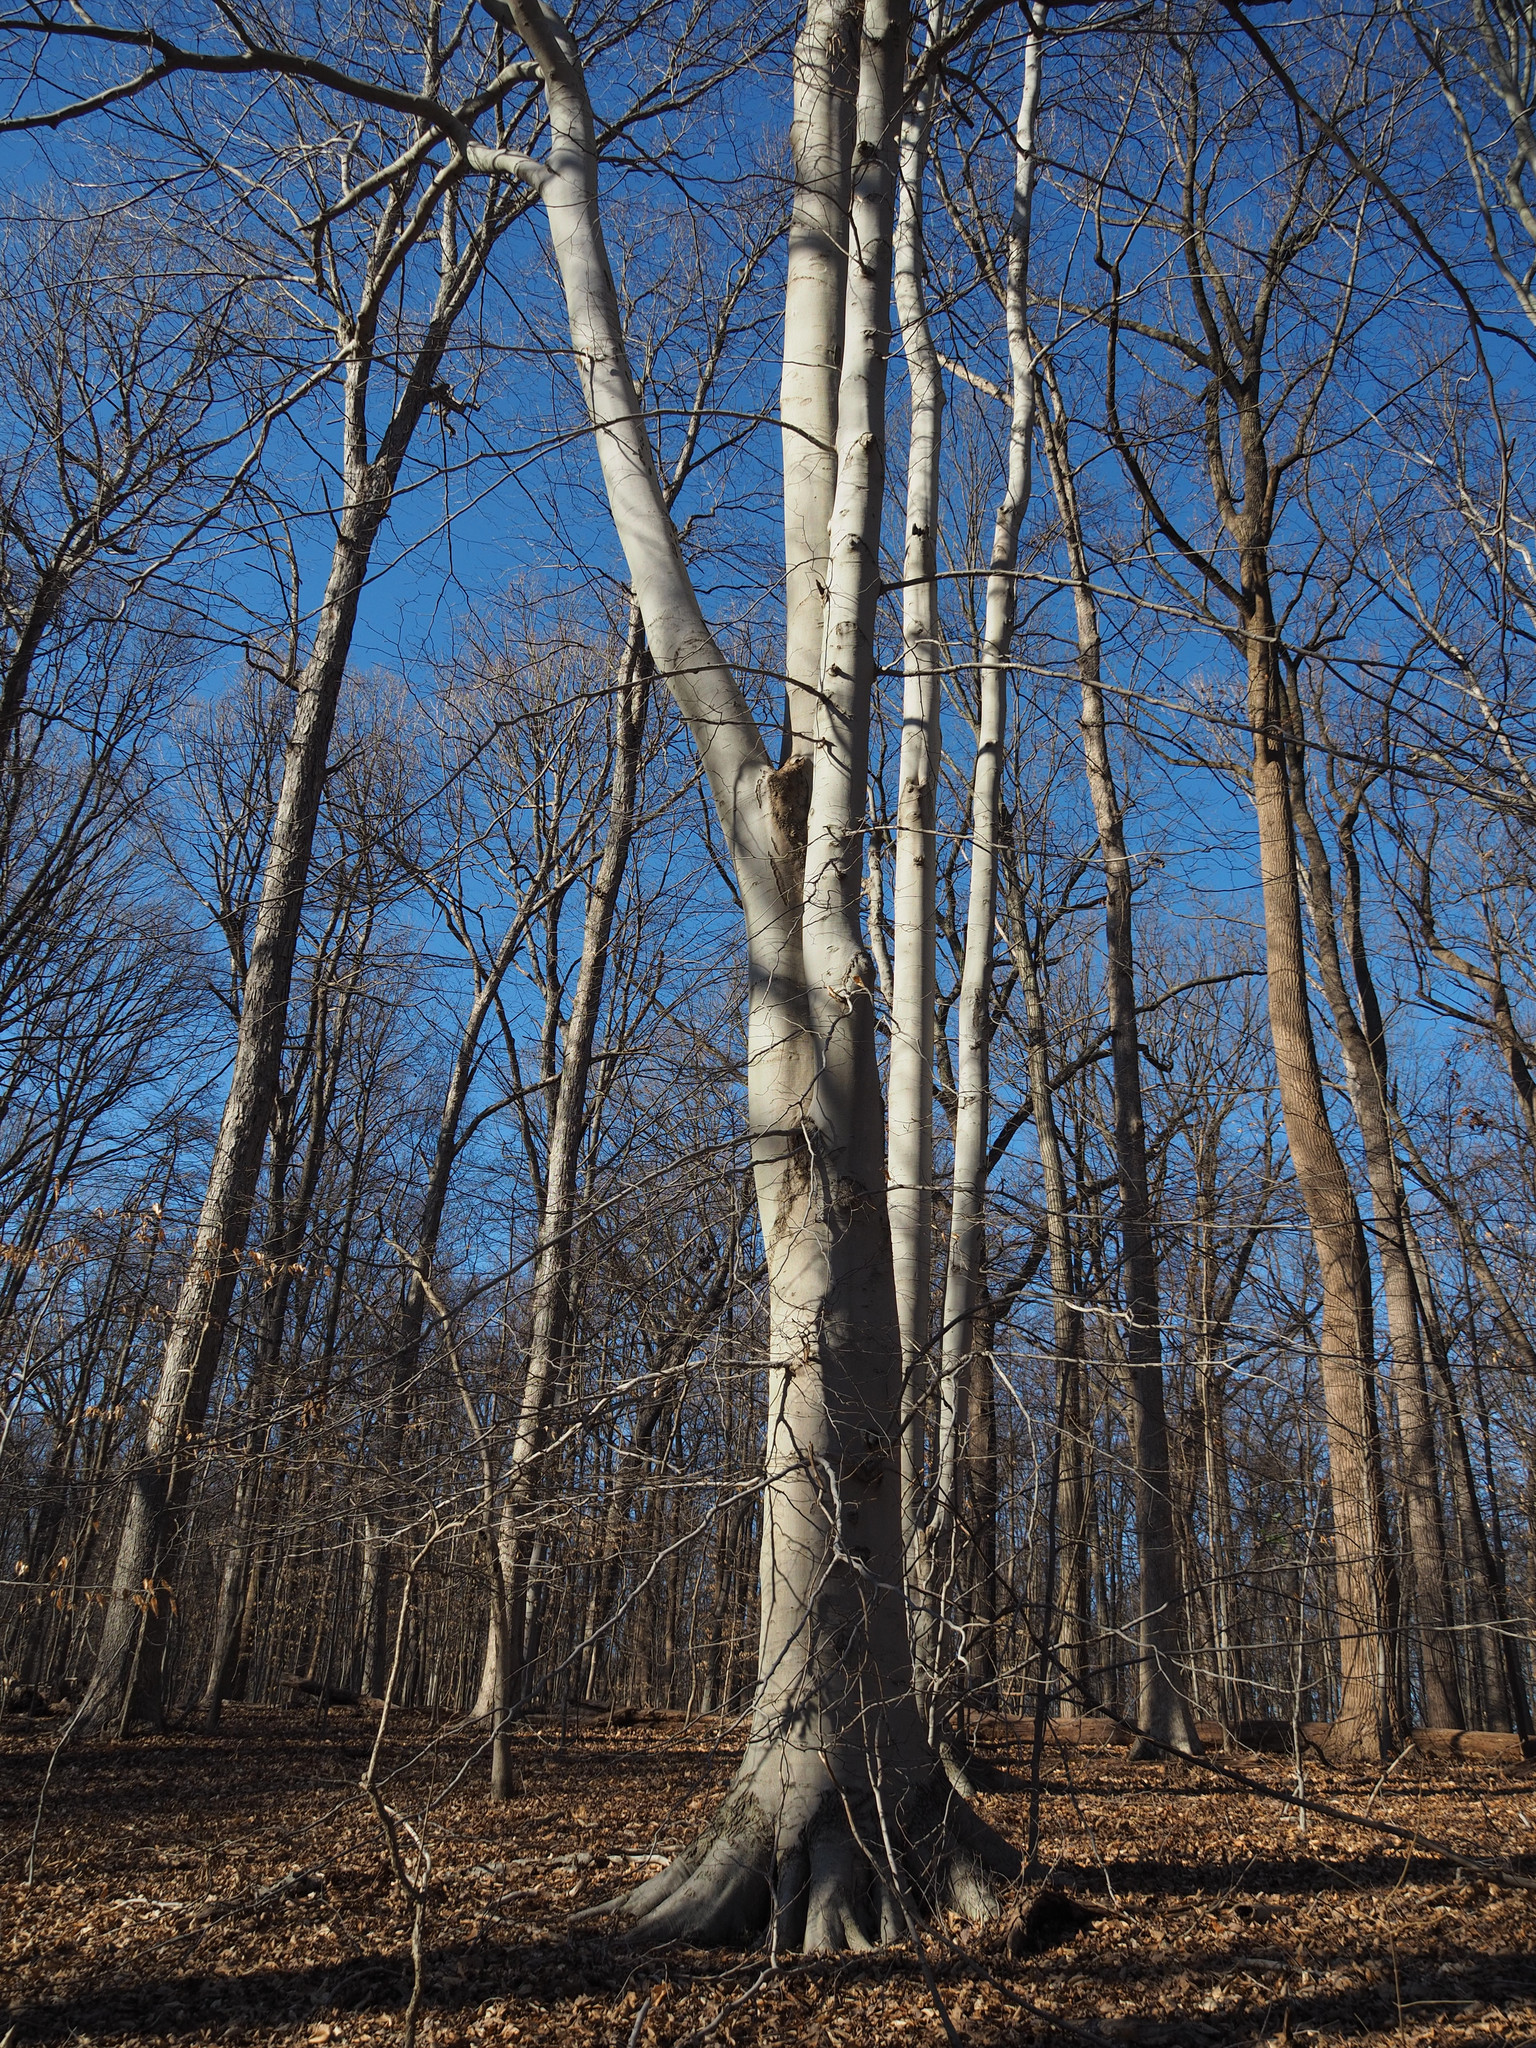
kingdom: Plantae
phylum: Tracheophyta
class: Magnoliopsida
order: Fagales
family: Fagaceae
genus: Fagus
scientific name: Fagus grandifolia
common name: American beech
